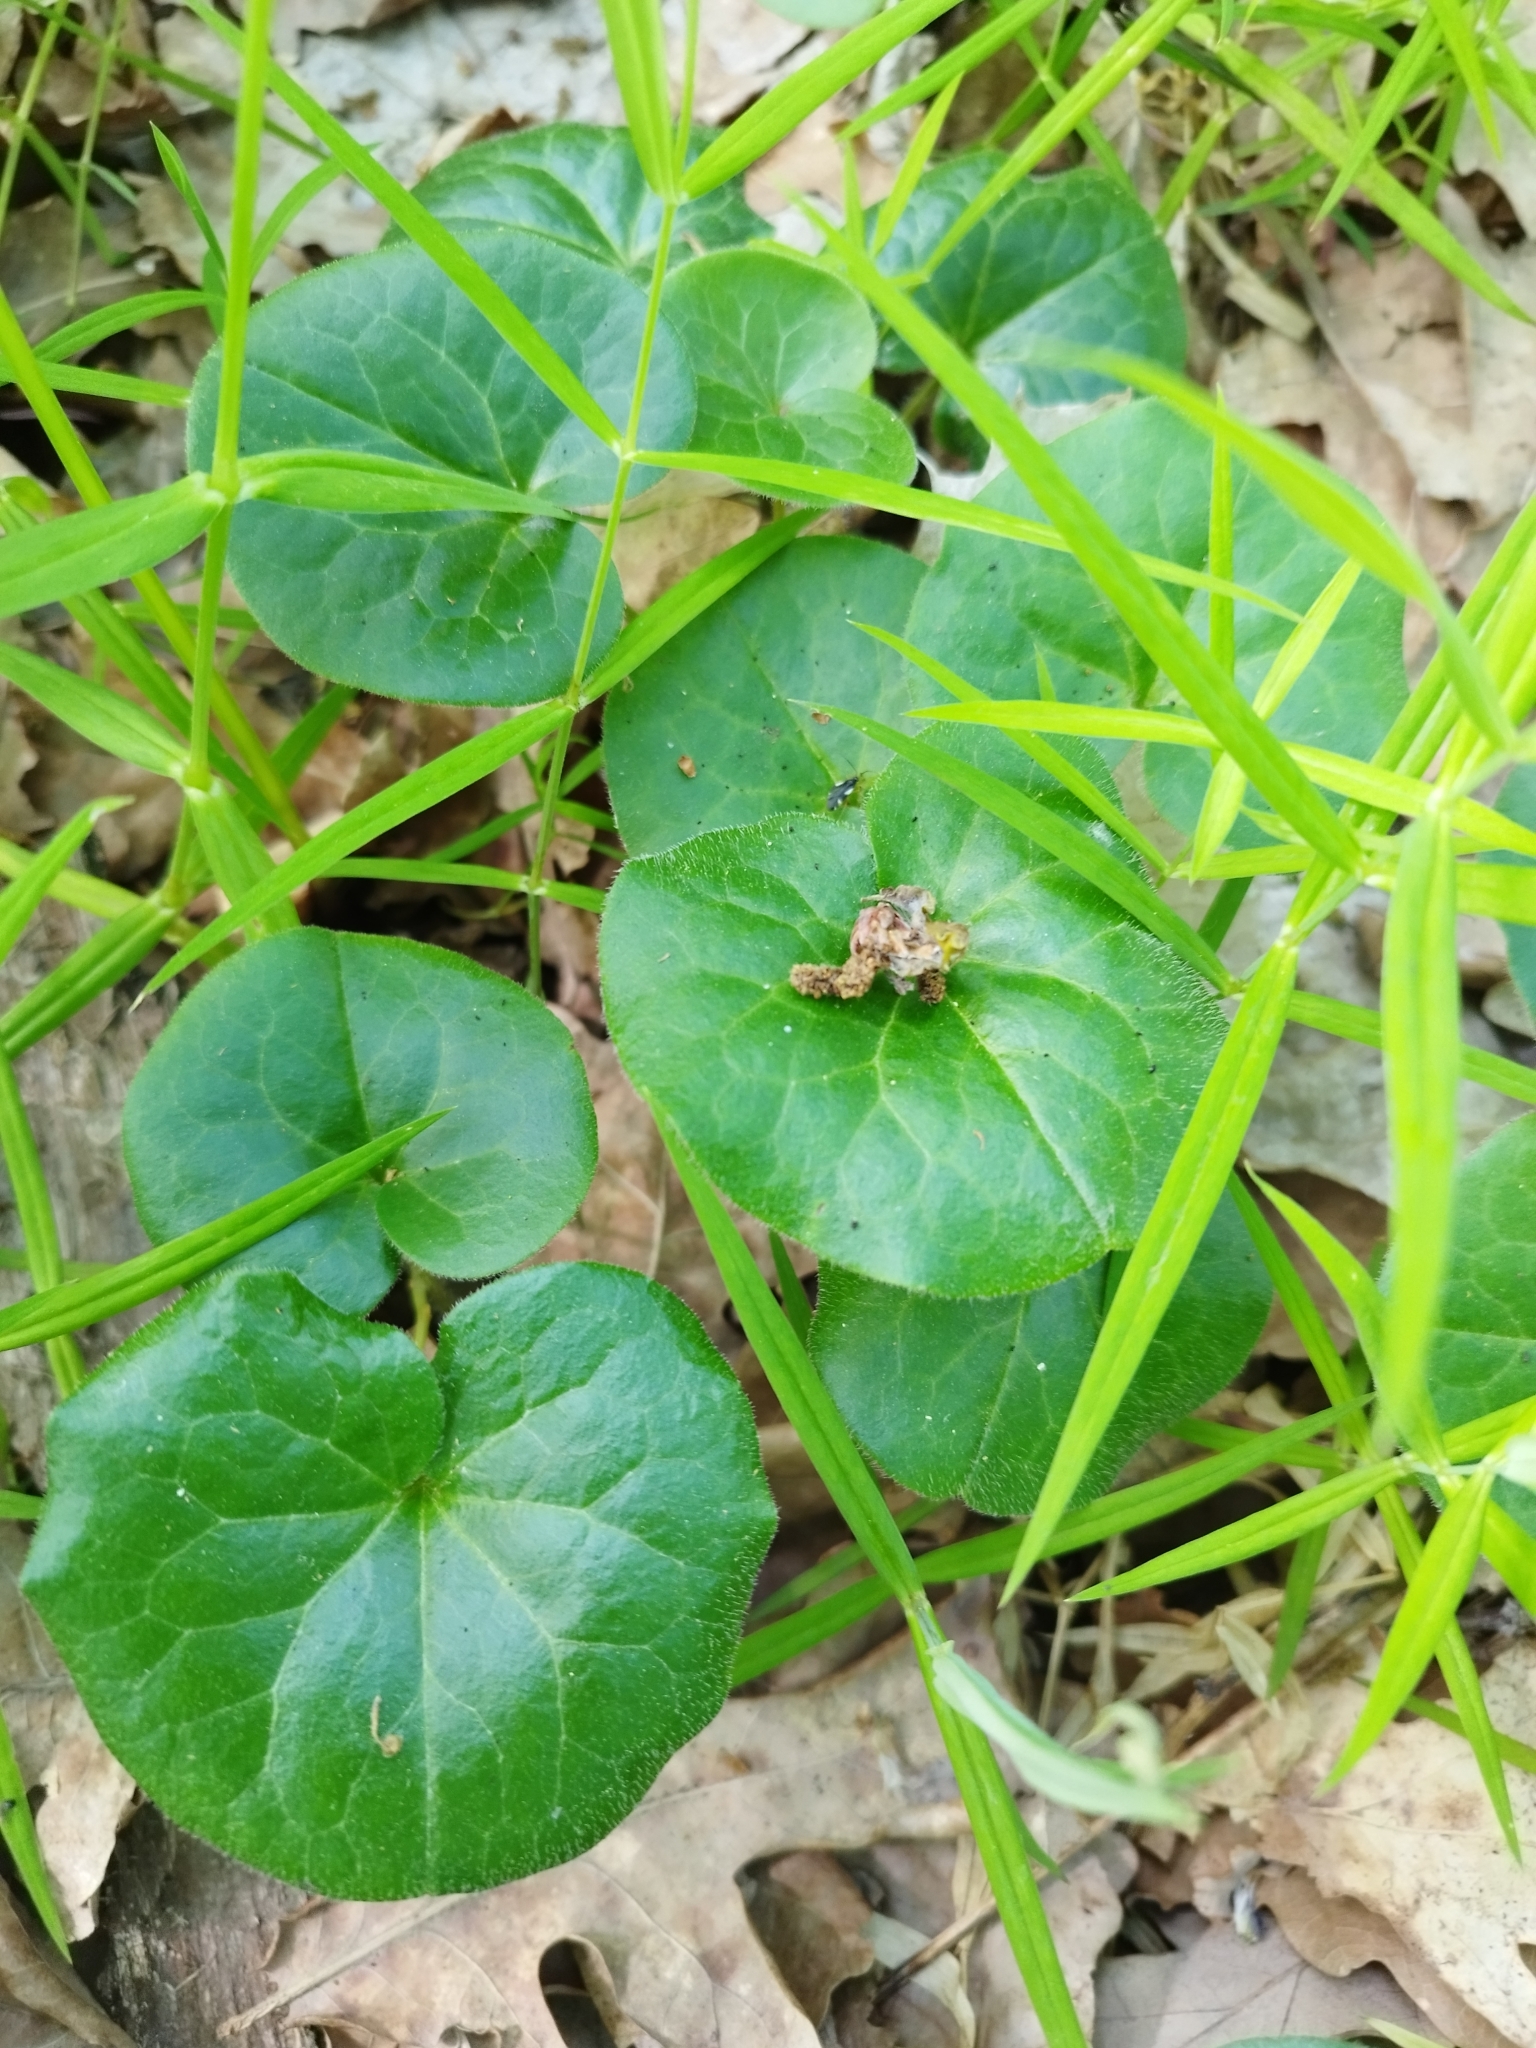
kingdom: Plantae
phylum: Tracheophyta
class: Magnoliopsida
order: Piperales
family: Aristolochiaceae
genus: Asarum
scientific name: Asarum europaeum
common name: Asarabacca
